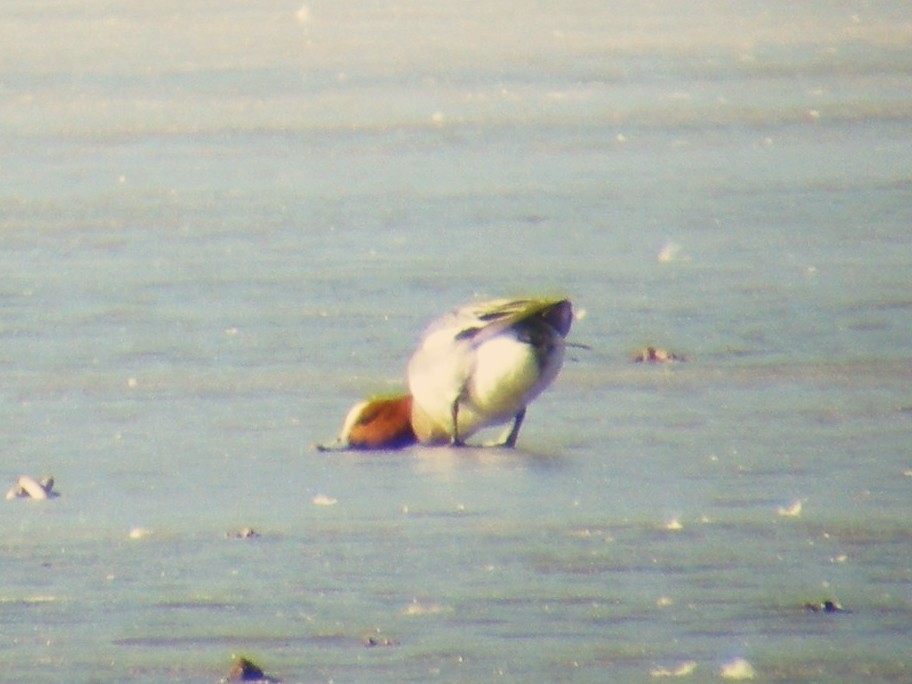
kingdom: Animalia
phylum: Chordata
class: Aves
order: Anseriformes
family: Anatidae
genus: Mareca
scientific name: Mareca penelope
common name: Eurasian wigeon
